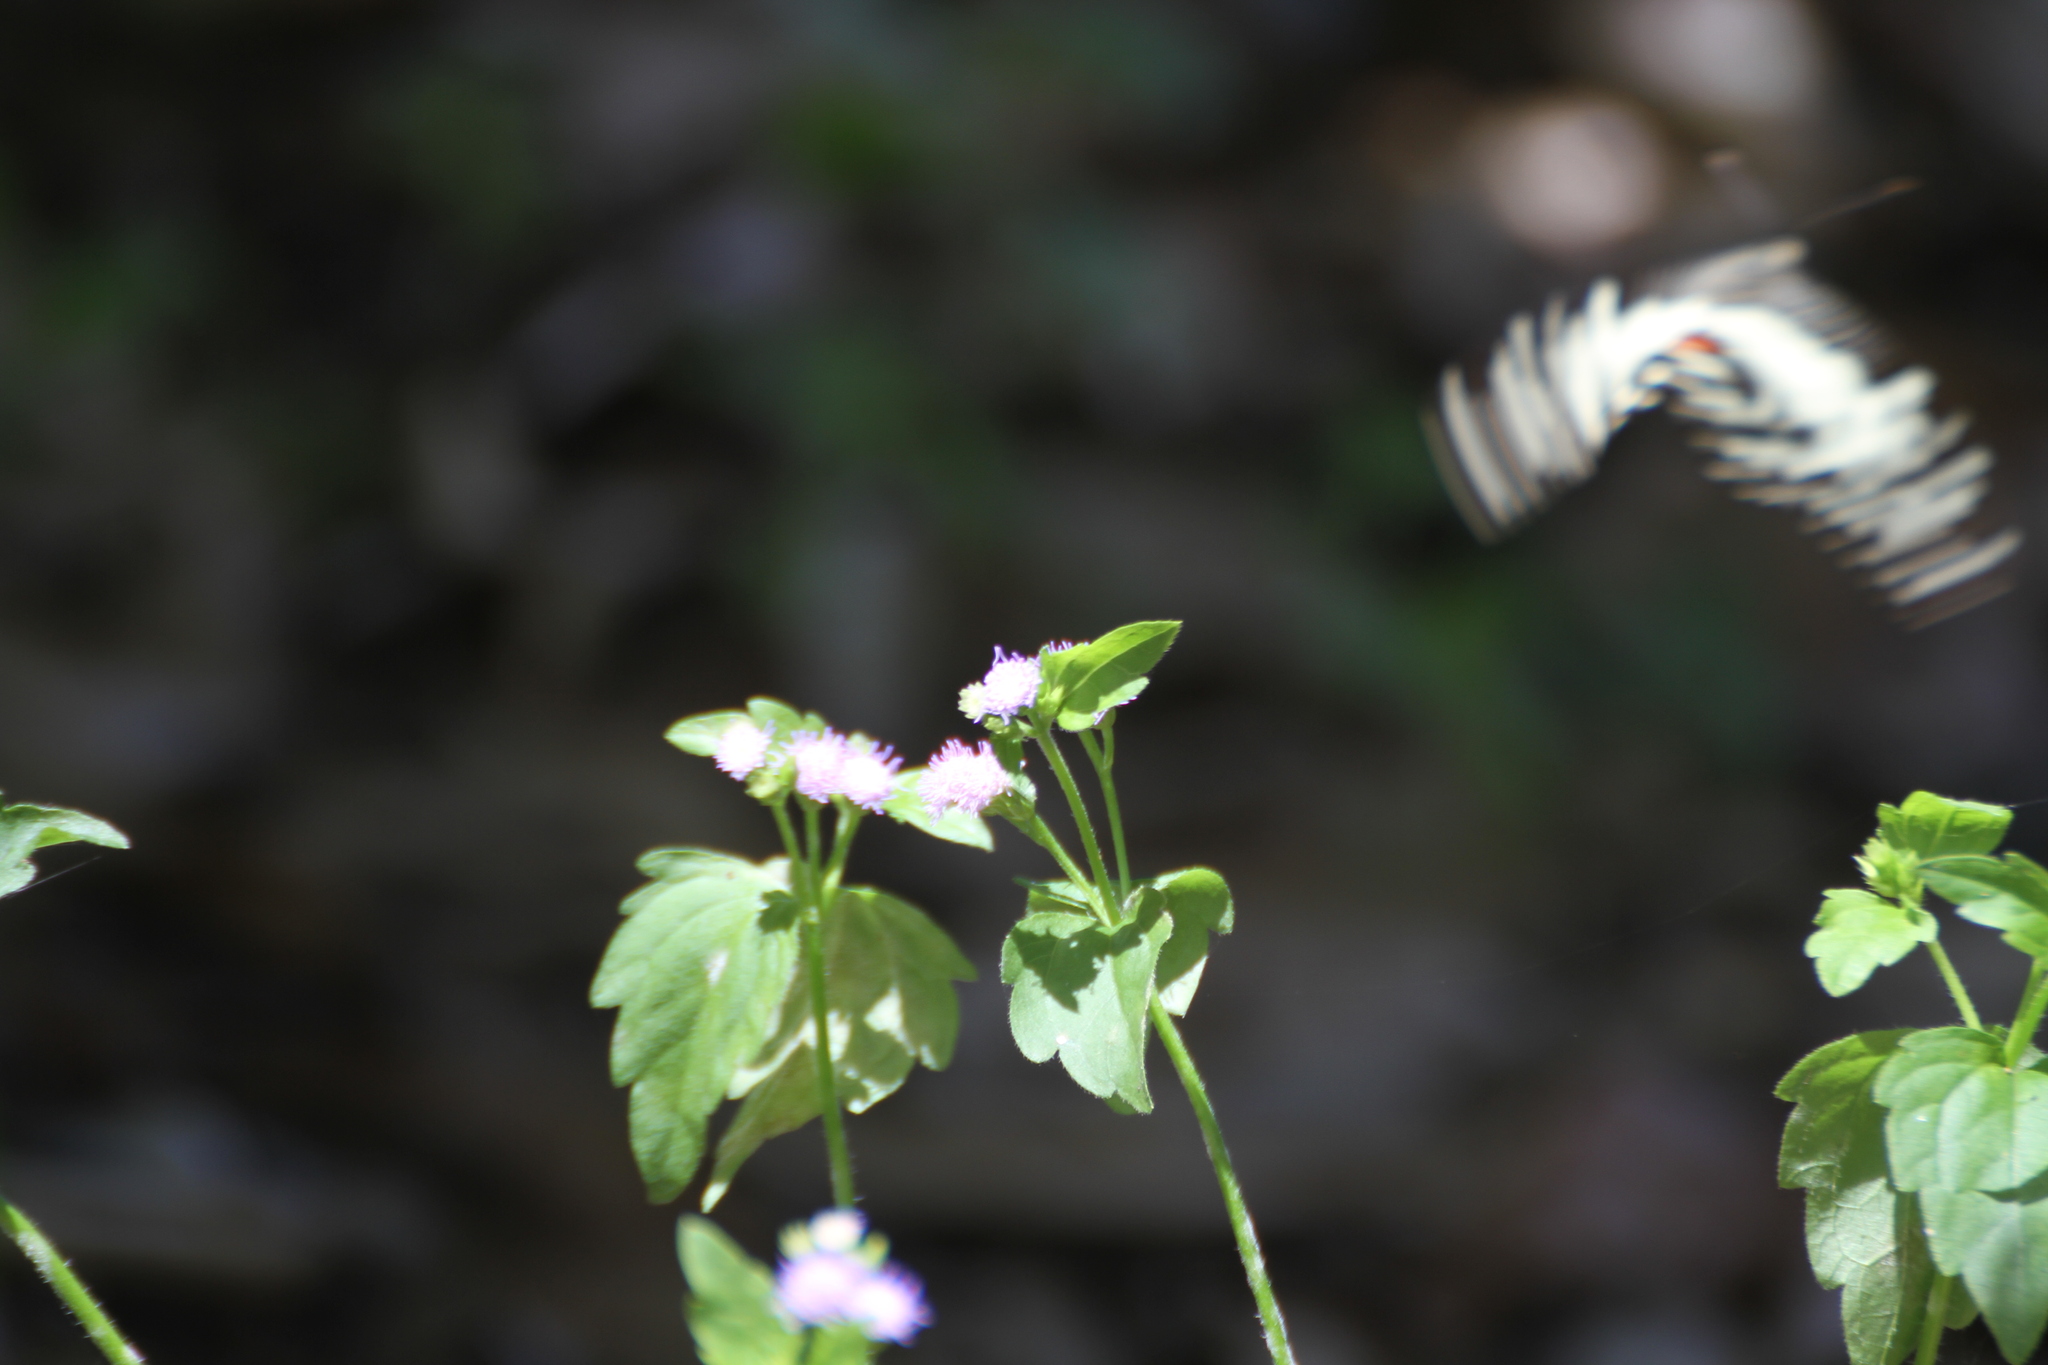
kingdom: Animalia
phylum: Arthropoda
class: Insecta
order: Lepidoptera
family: Papilionidae
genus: Papilio
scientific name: Papilio demoleus
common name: Lime butterfly
